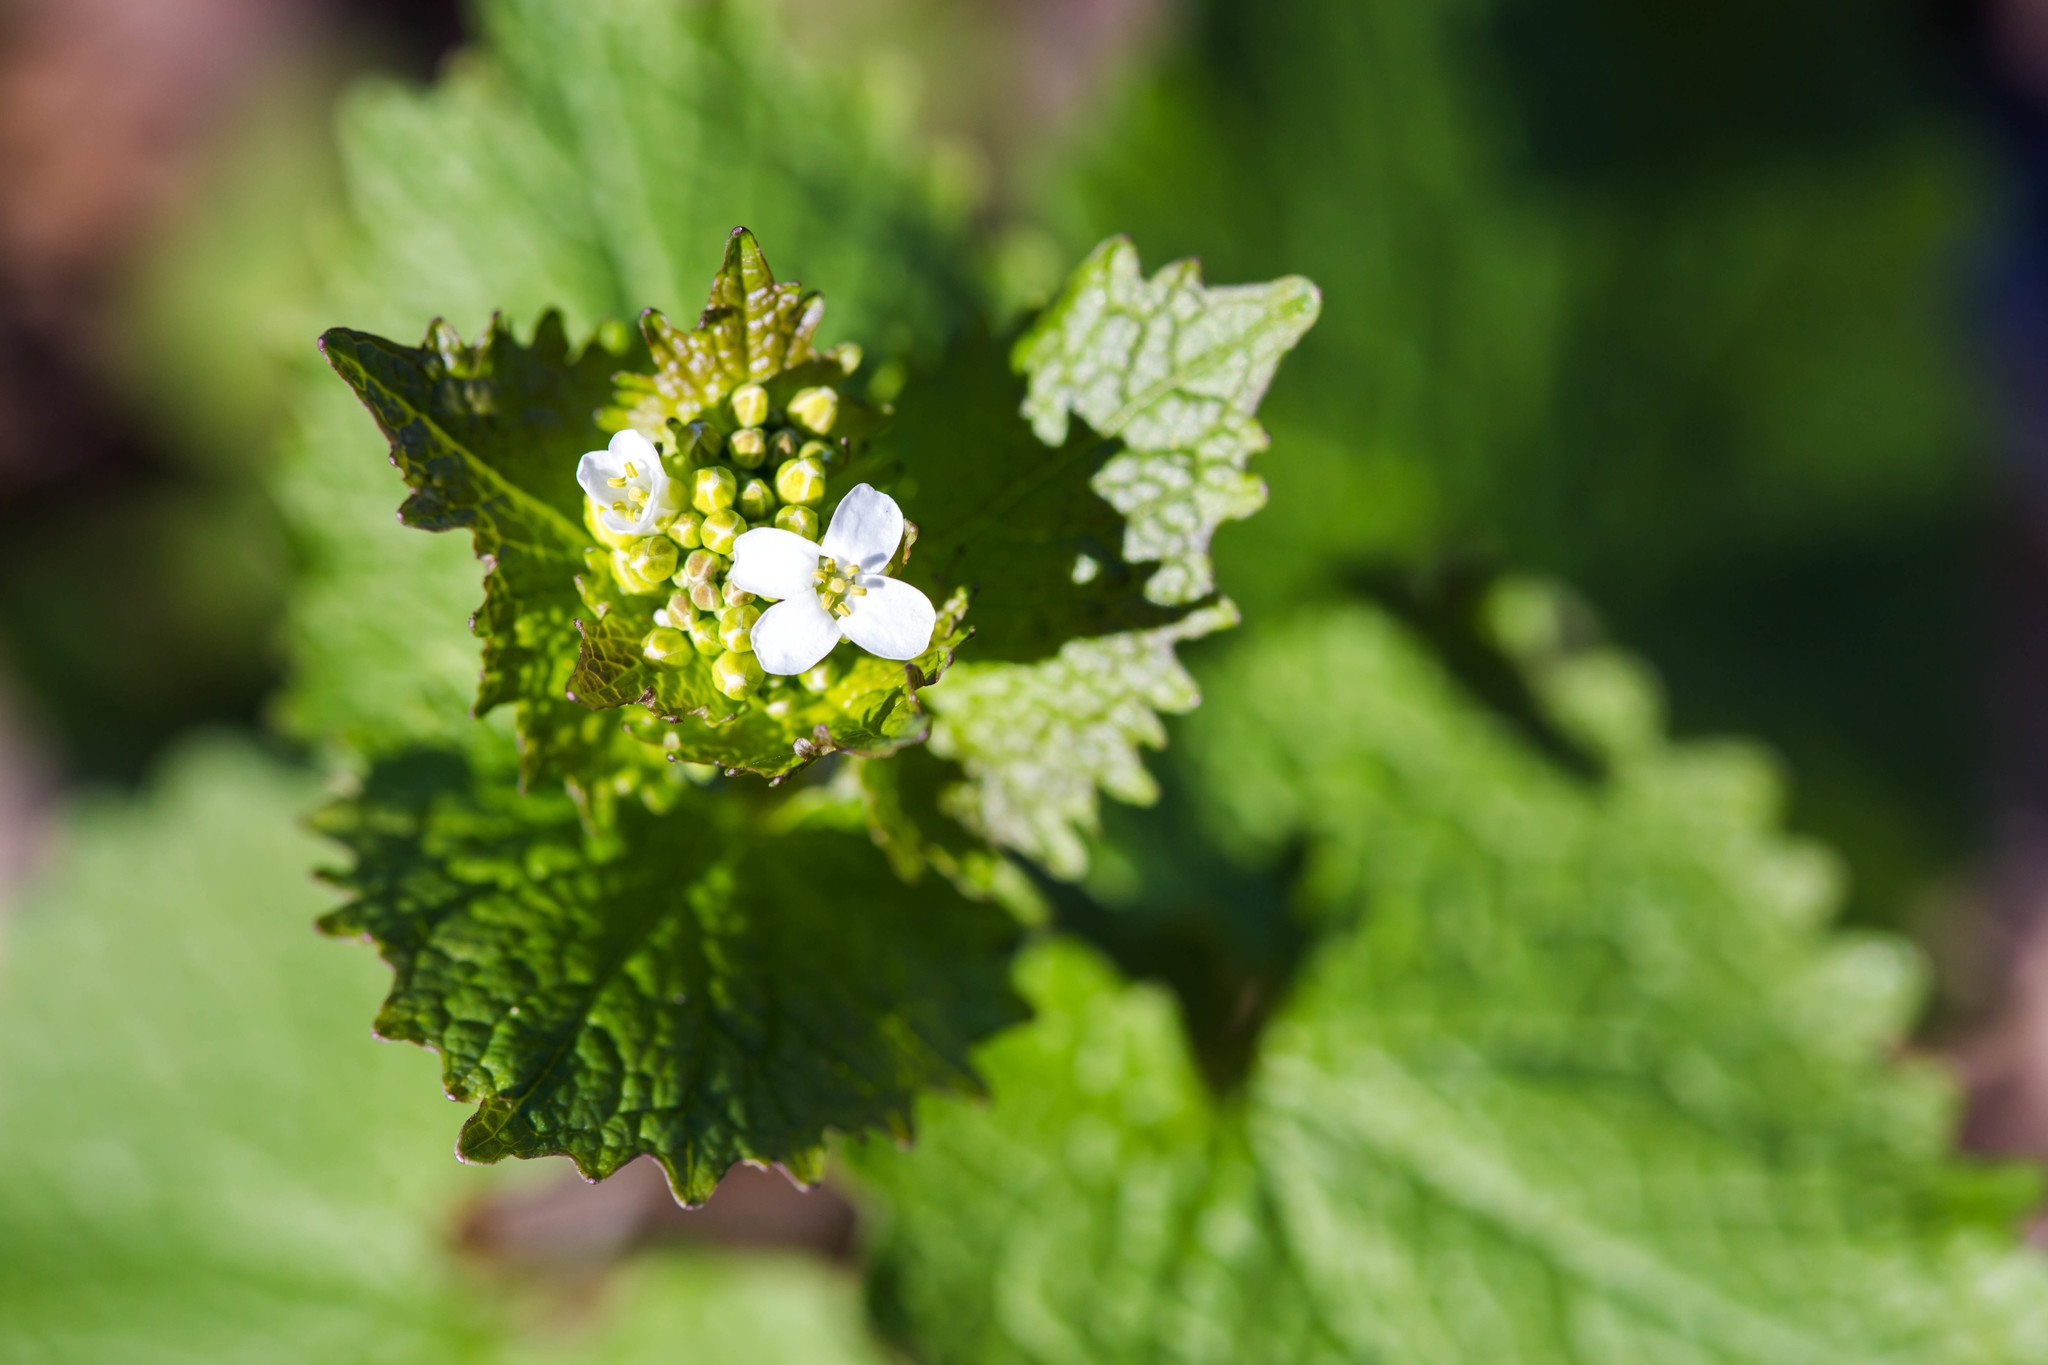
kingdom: Plantae
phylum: Tracheophyta
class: Magnoliopsida
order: Brassicales
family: Brassicaceae
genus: Alliaria
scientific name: Alliaria petiolata
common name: Garlic mustard
